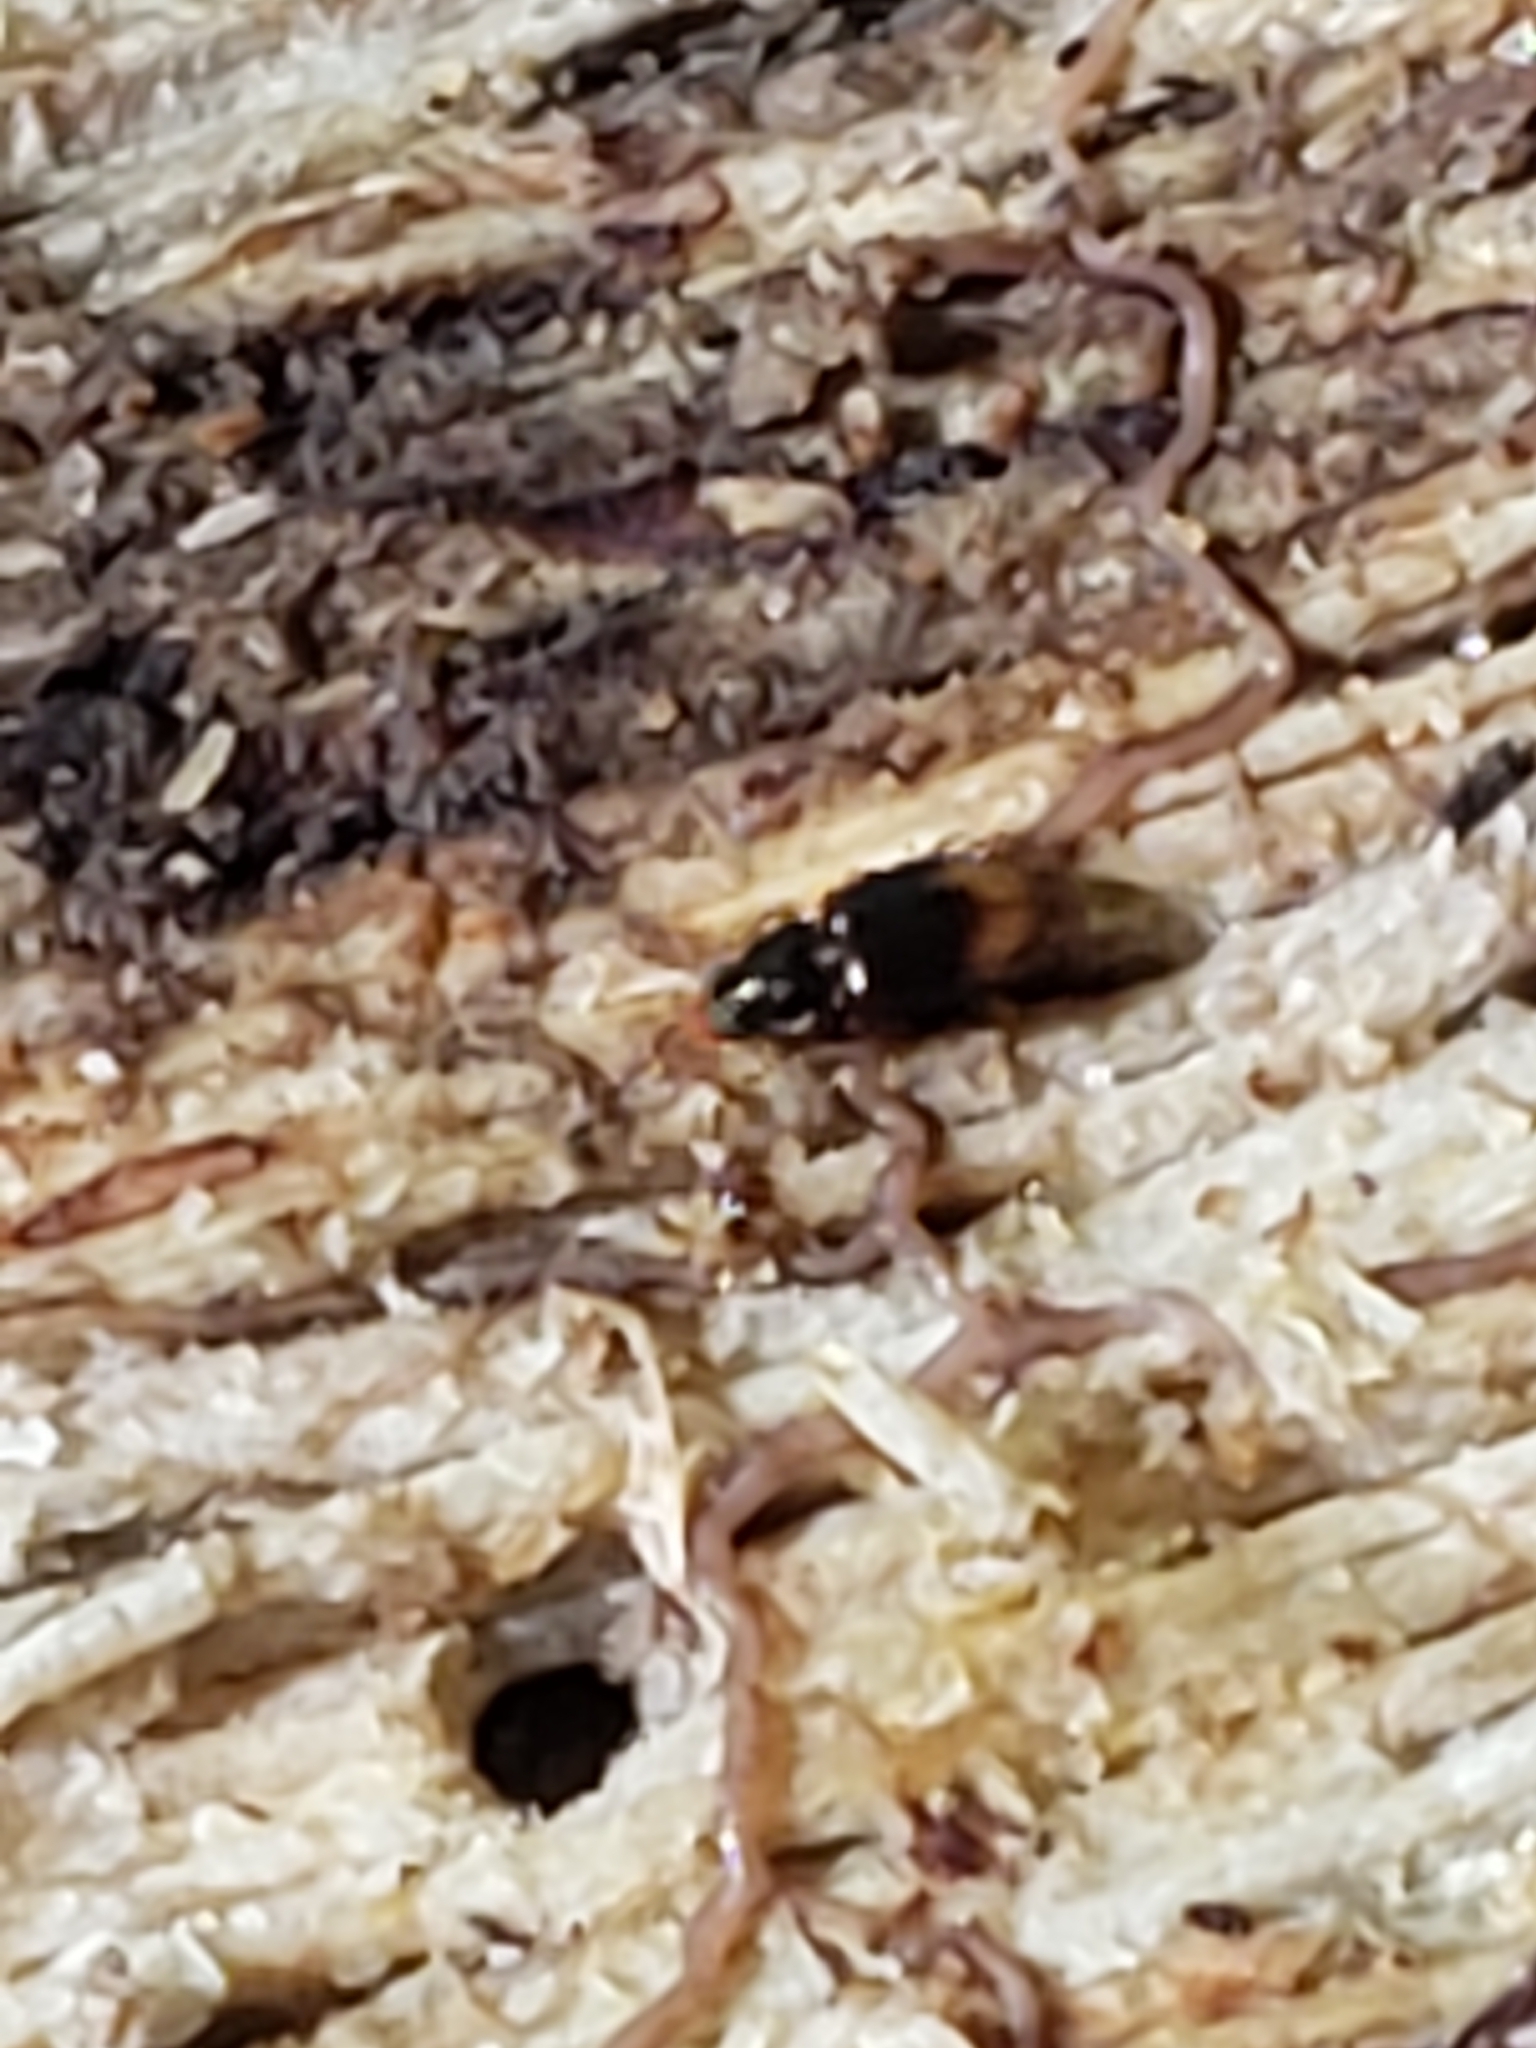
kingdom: Animalia
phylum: Arthropoda
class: Insecta
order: Coleoptera
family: Carabidae
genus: Mioptachys
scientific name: Mioptachys flavicauda
